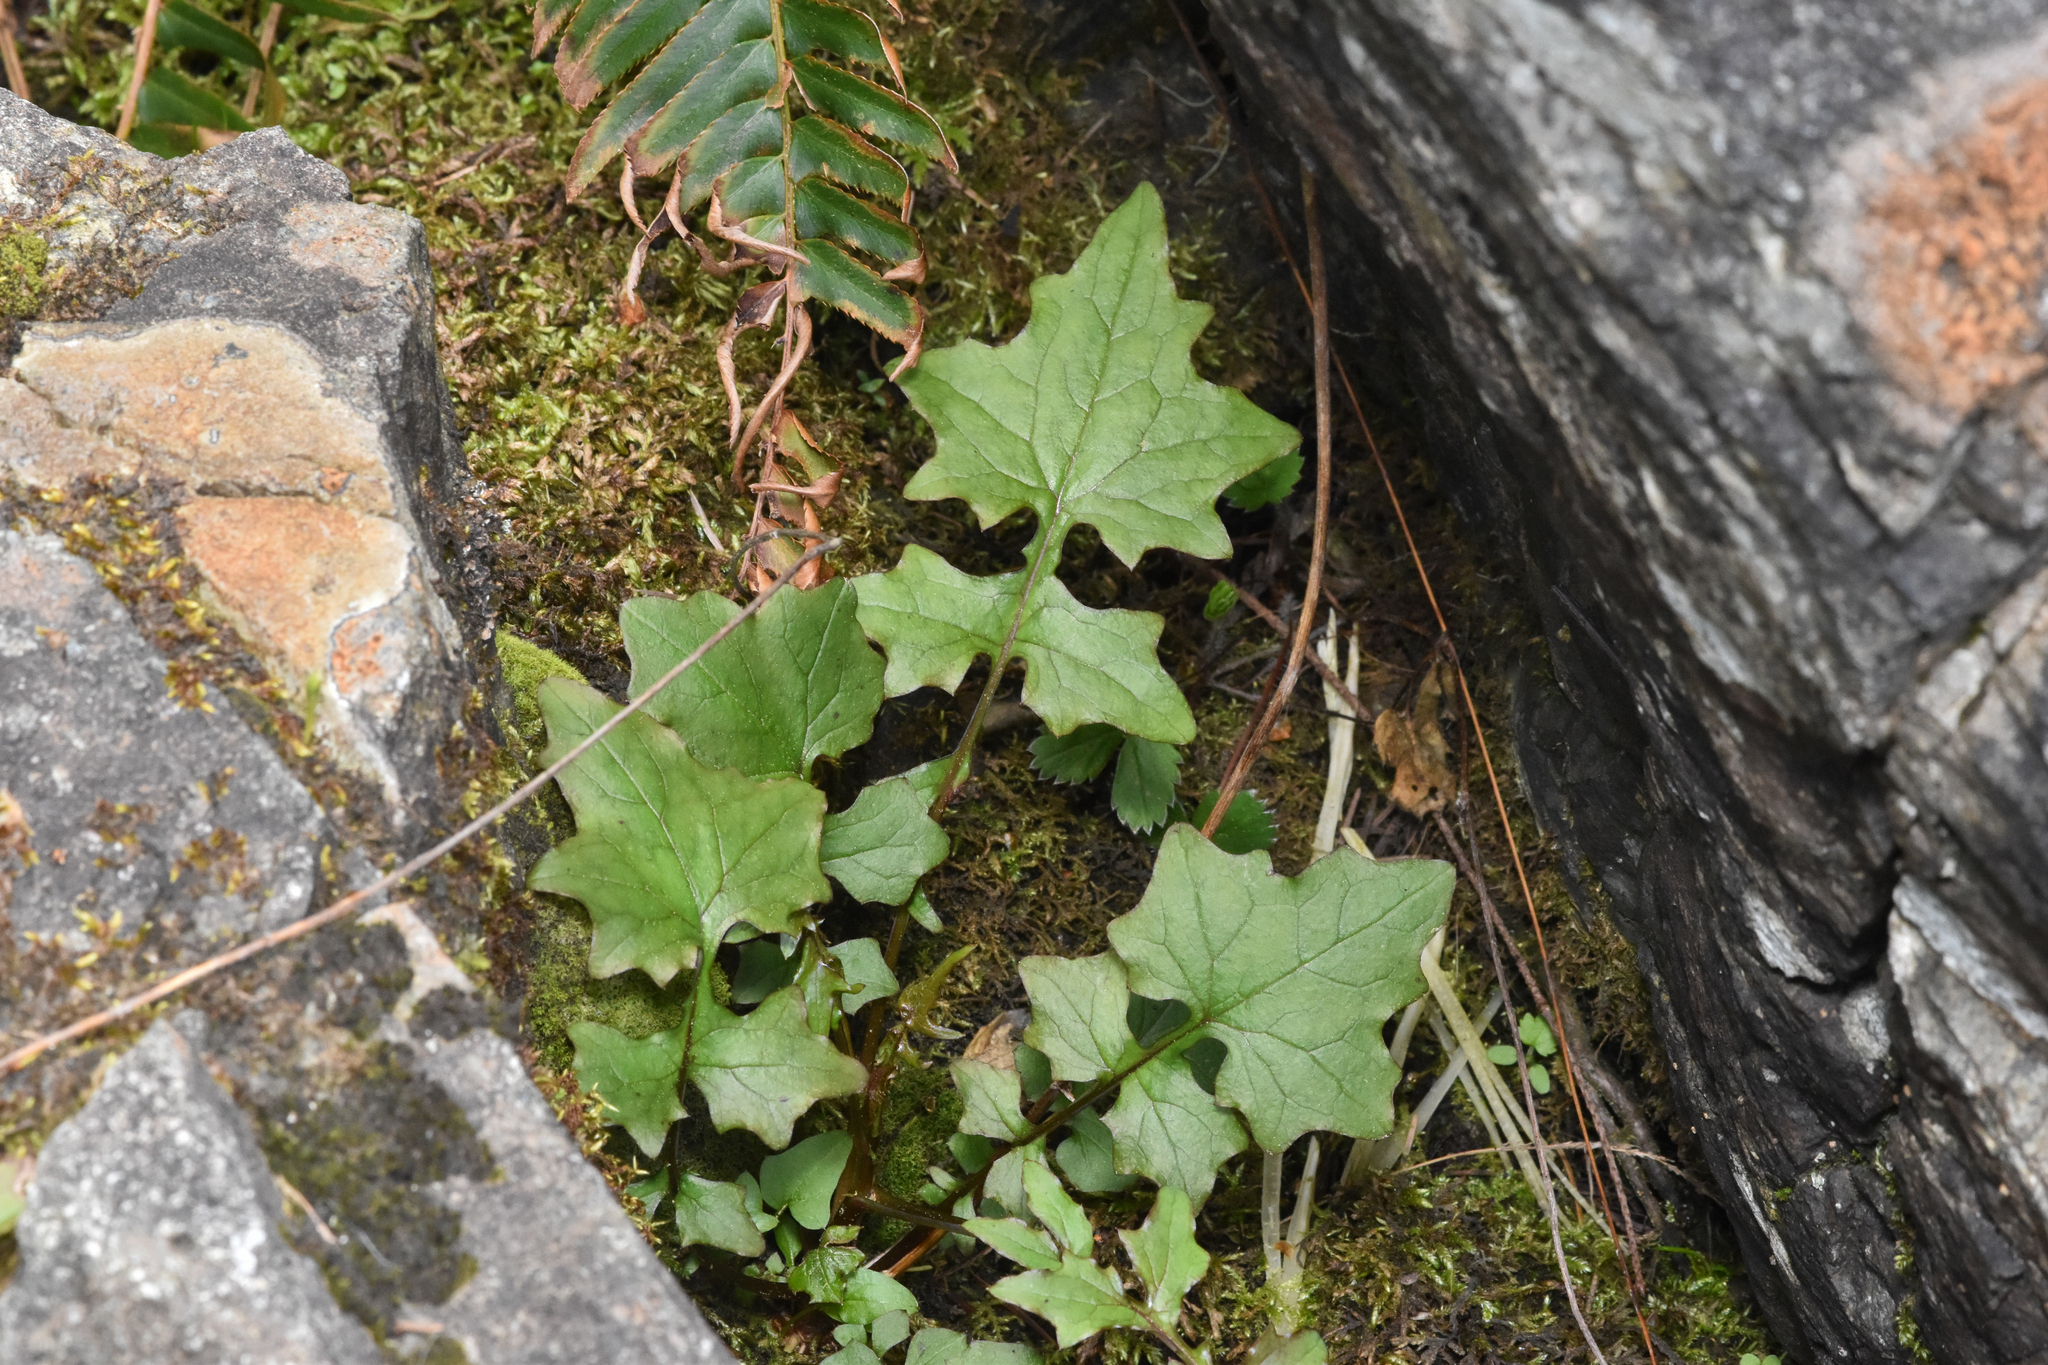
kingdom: Plantae
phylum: Tracheophyta
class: Magnoliopsida
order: Asterales
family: Asteraceae
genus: Mycelis
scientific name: Mycelis muralis
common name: Wall lettuce
